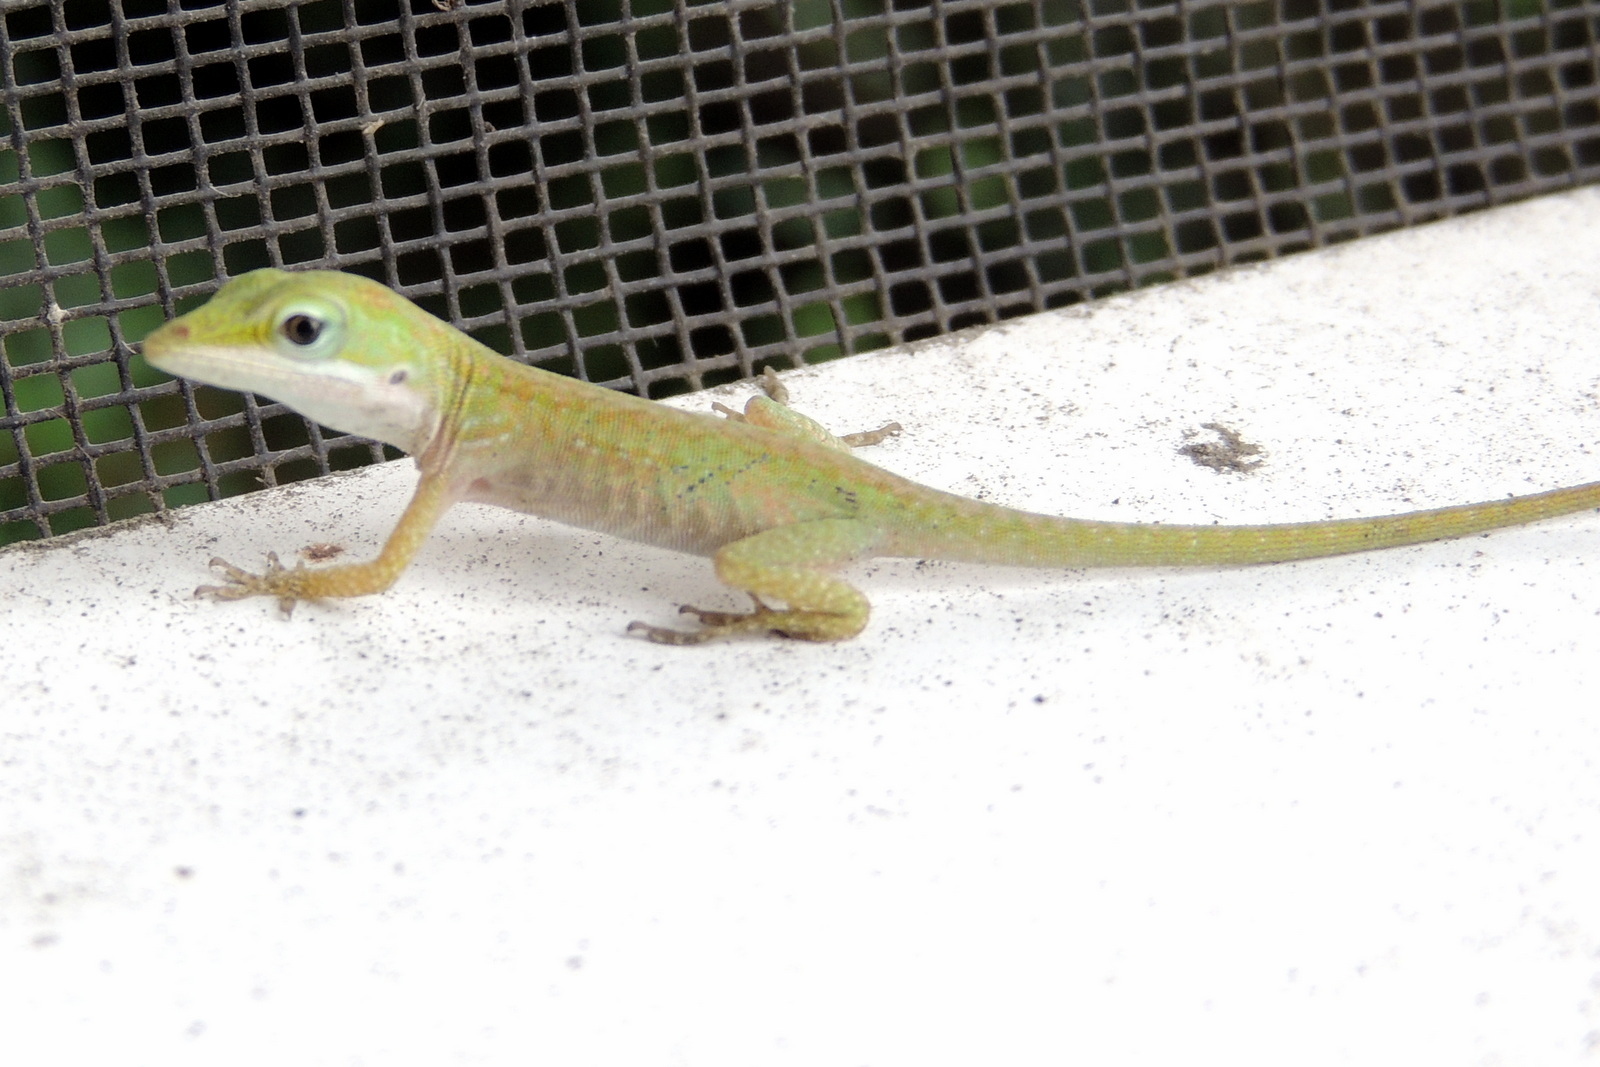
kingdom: Animalia
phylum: Chordata
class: Squamata
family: Dactyloidae
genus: Anolis
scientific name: Anolis carolinensis
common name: Green anole
